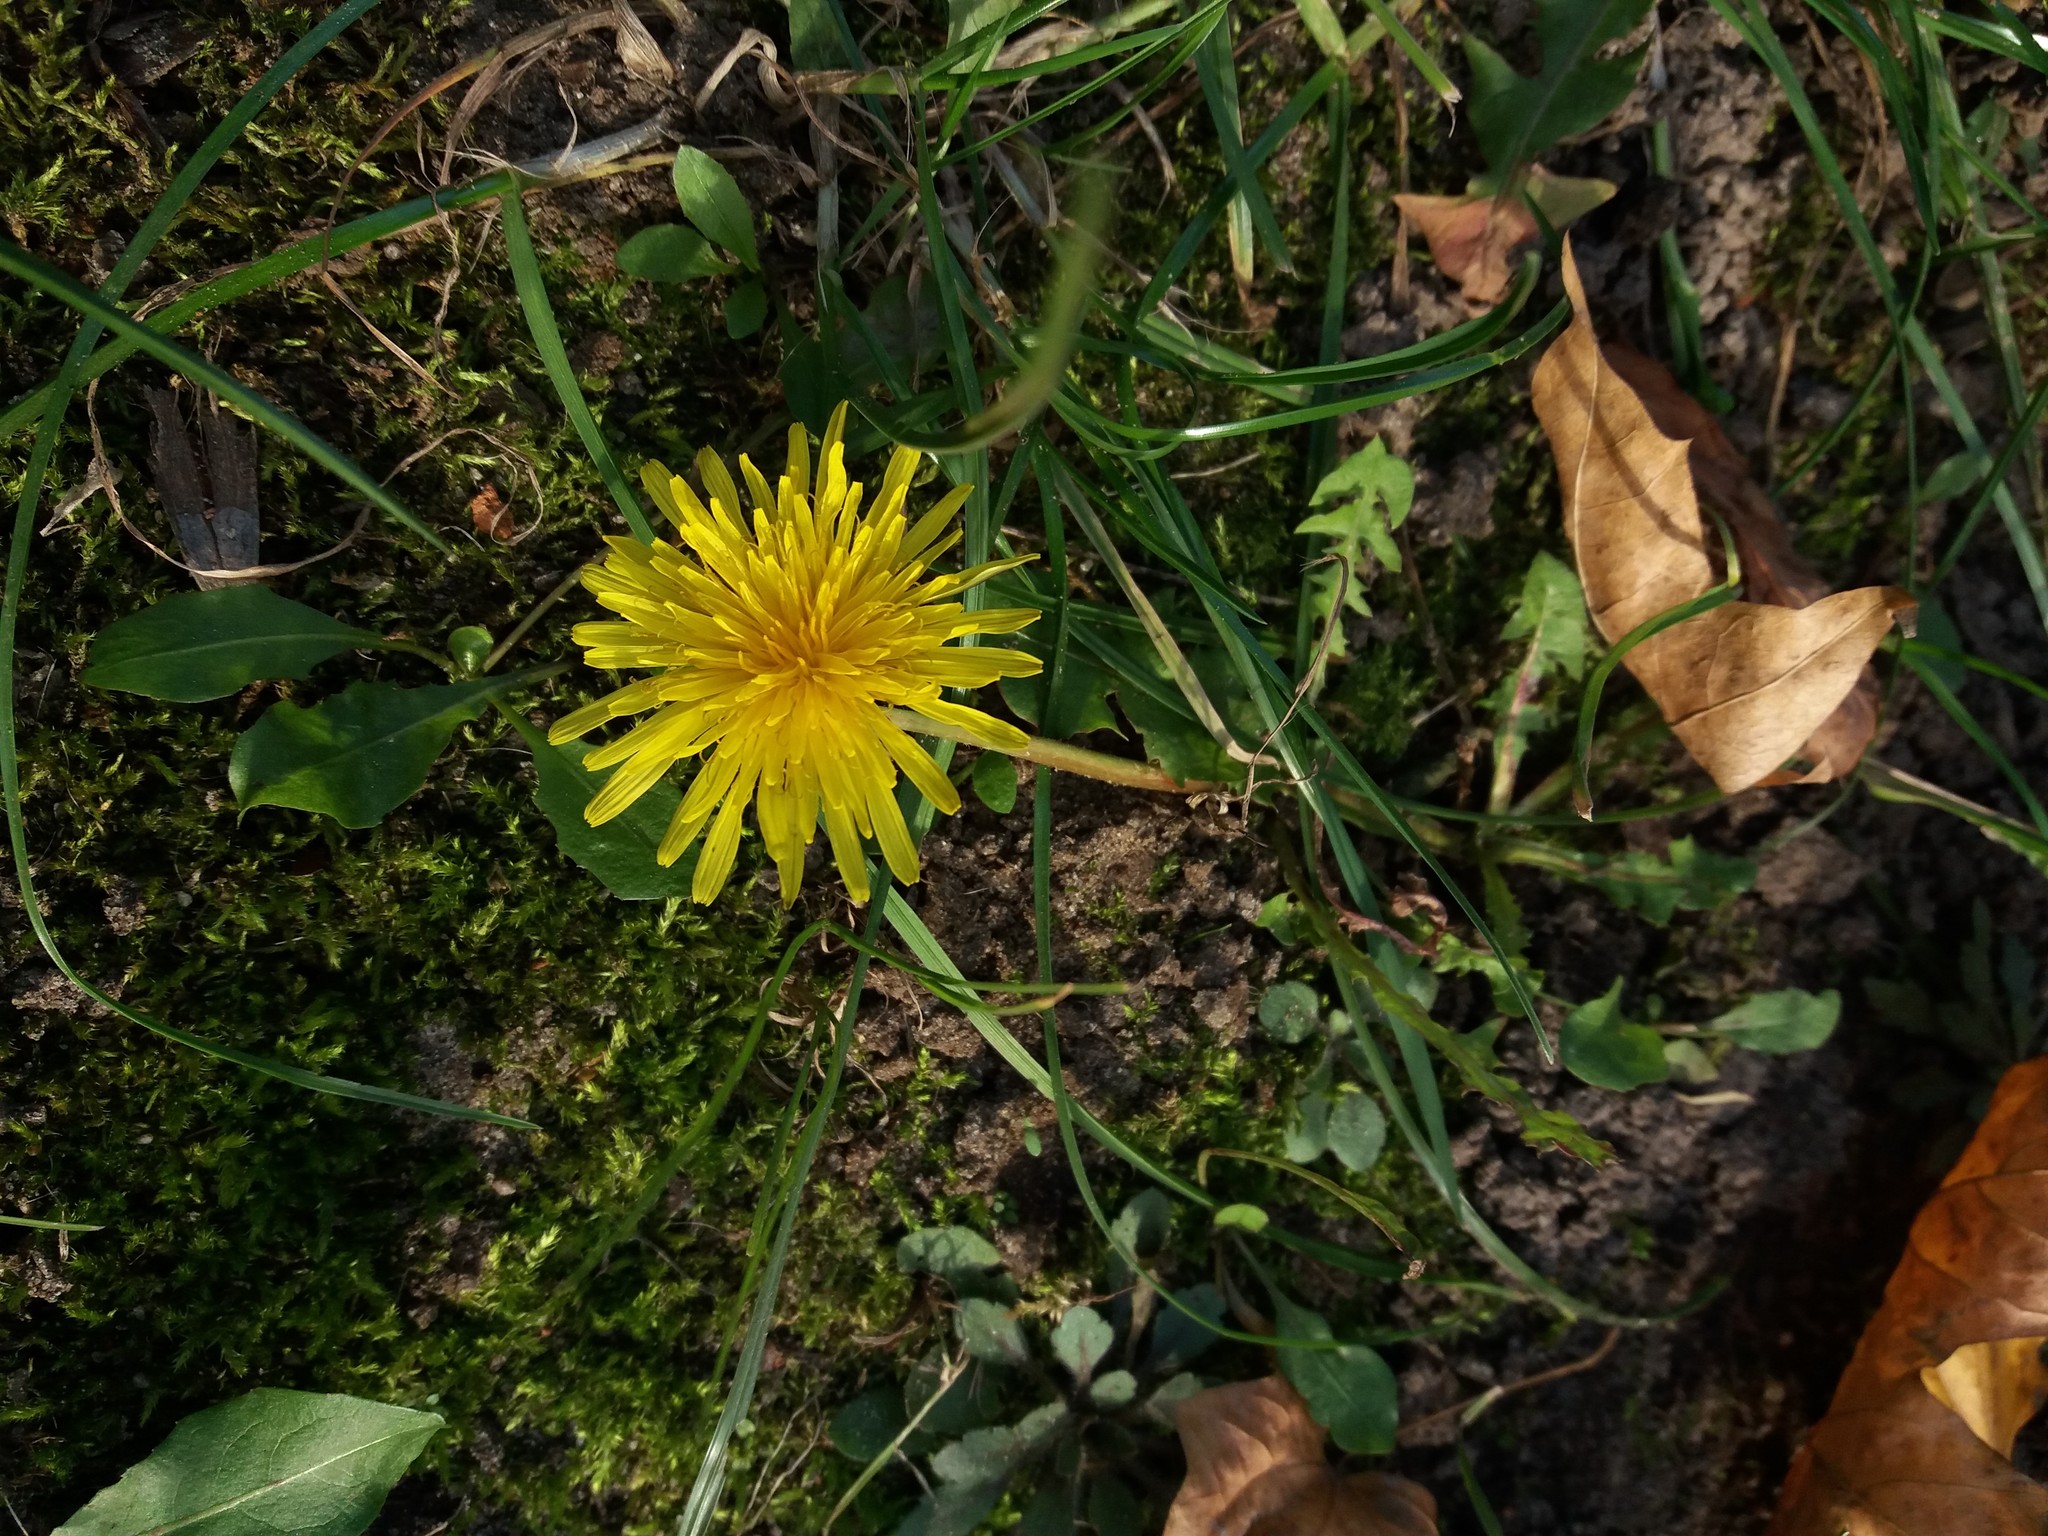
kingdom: Plantae
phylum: Tracheophyta
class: Magnoliopsida
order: Asterales
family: Asteraceae
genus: Taraxacum
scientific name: Taraxacum officinale
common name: Common dandelion
